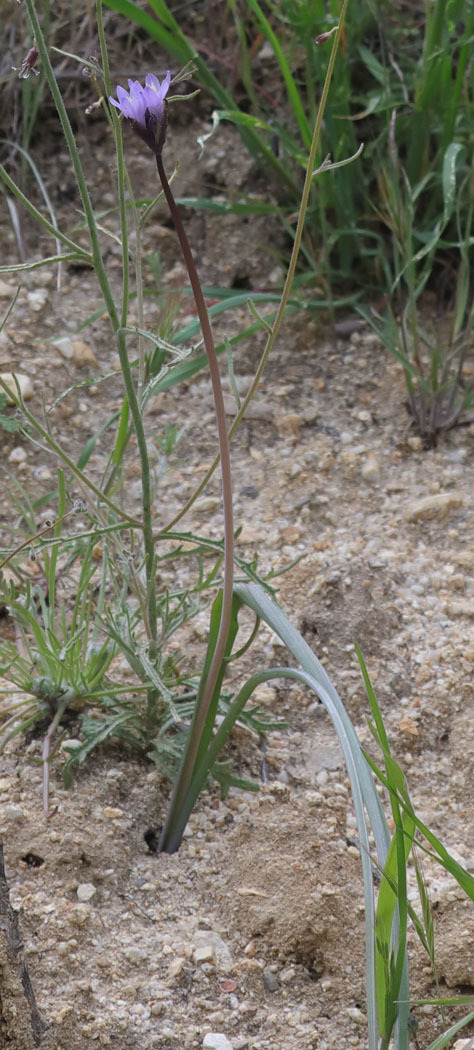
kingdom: Plantae
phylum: Tracheophyta
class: Liliopsida
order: Asparagales
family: Asparagaceae
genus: Dipterostemon
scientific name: Dipterostemon capitatus
